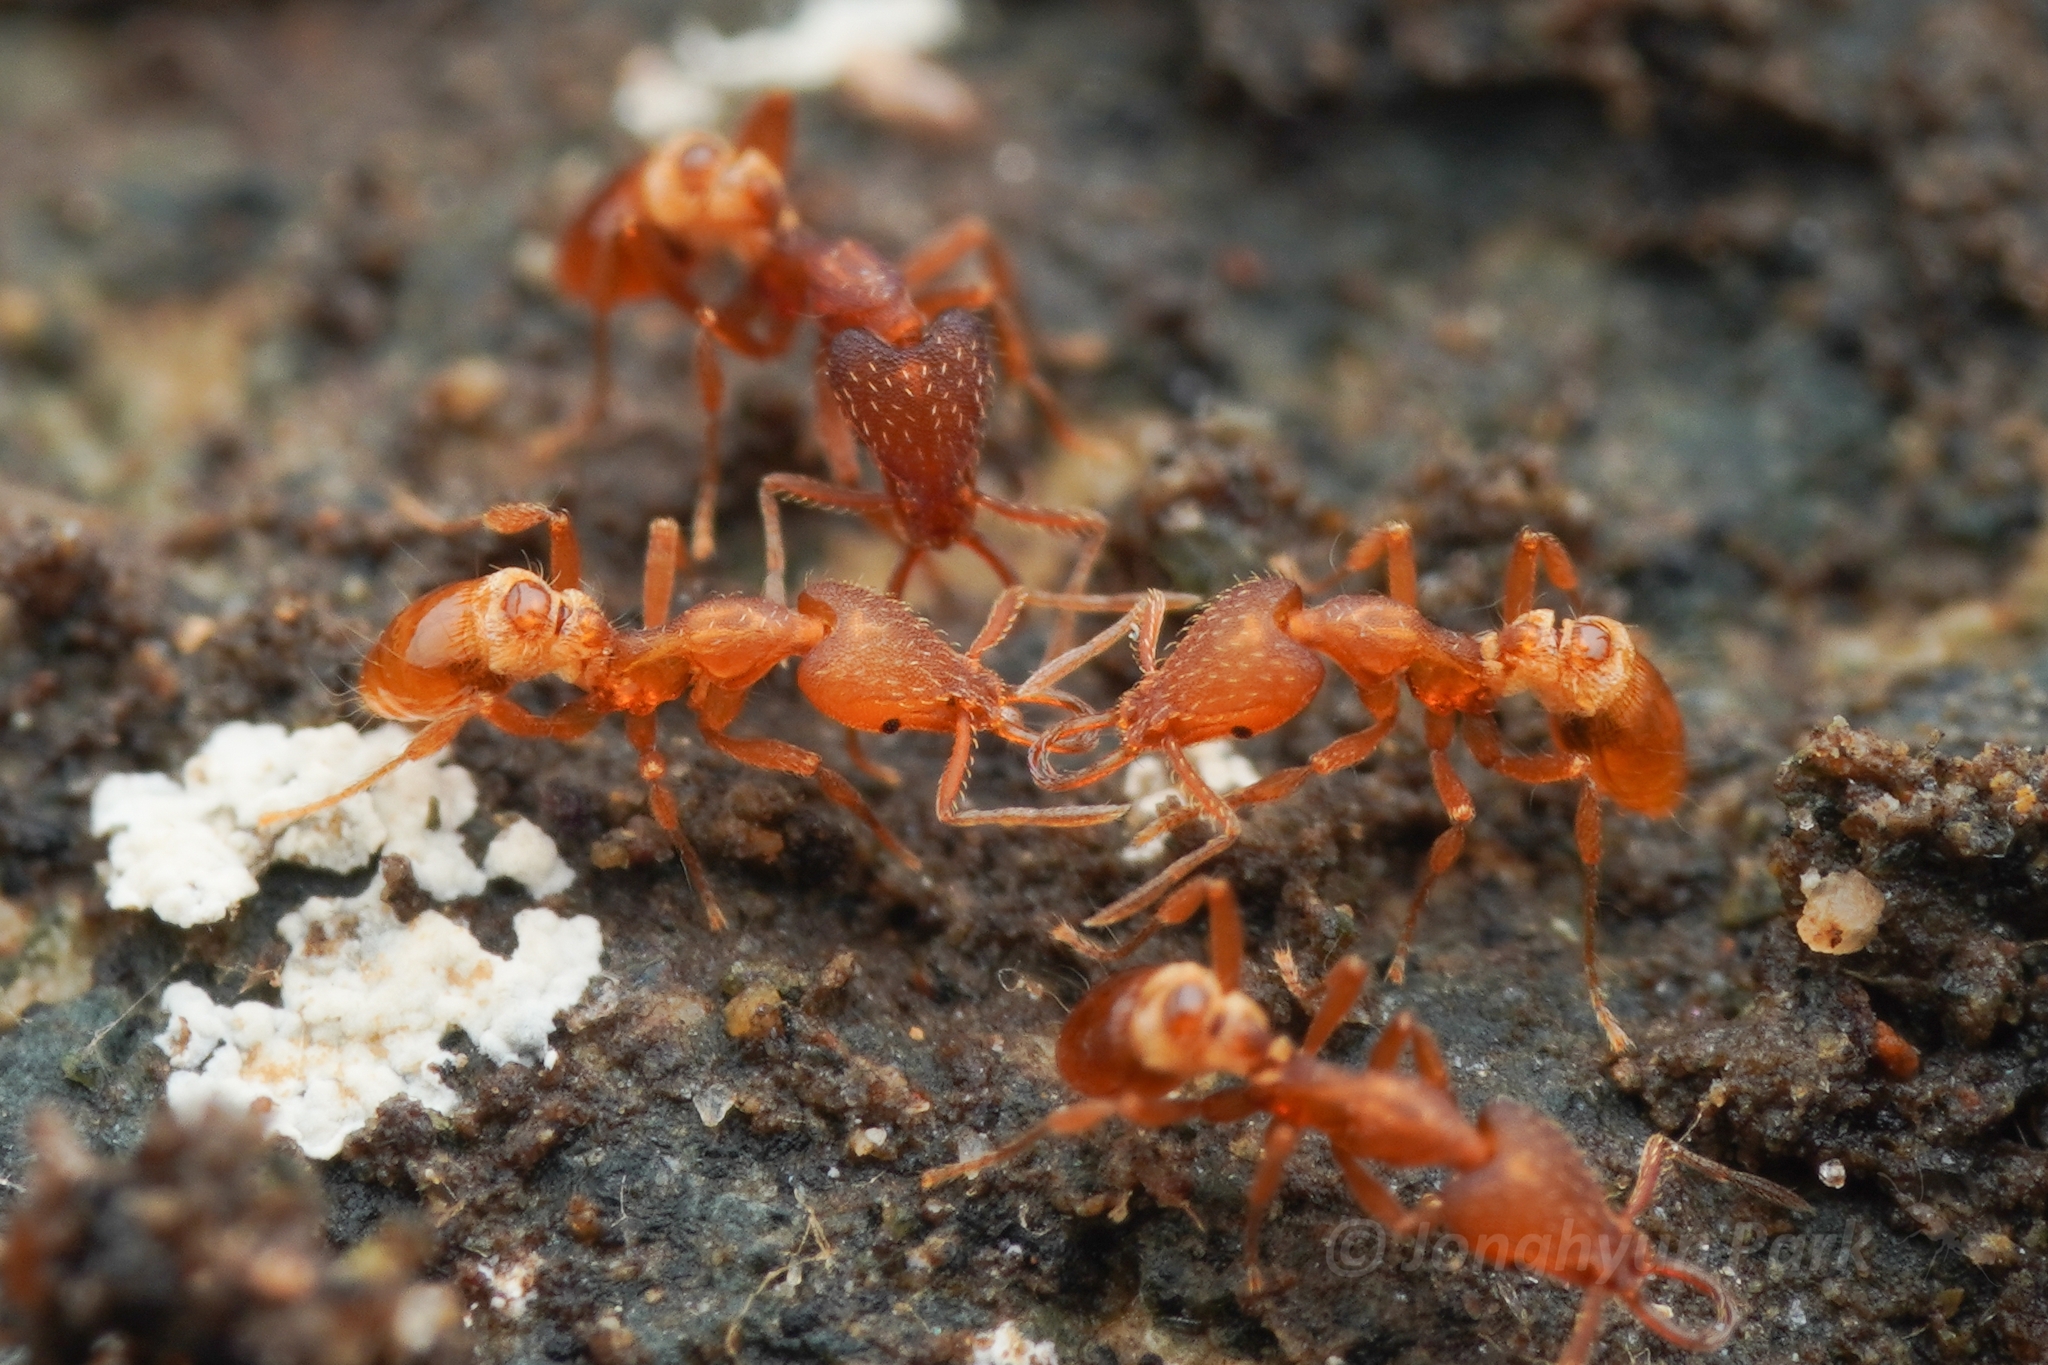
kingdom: Animalia
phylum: Arthropoda
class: Insecta
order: Hymenoptera
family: Formicidae
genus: Strumigenys
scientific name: Strumigenys lewisi
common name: Ant
